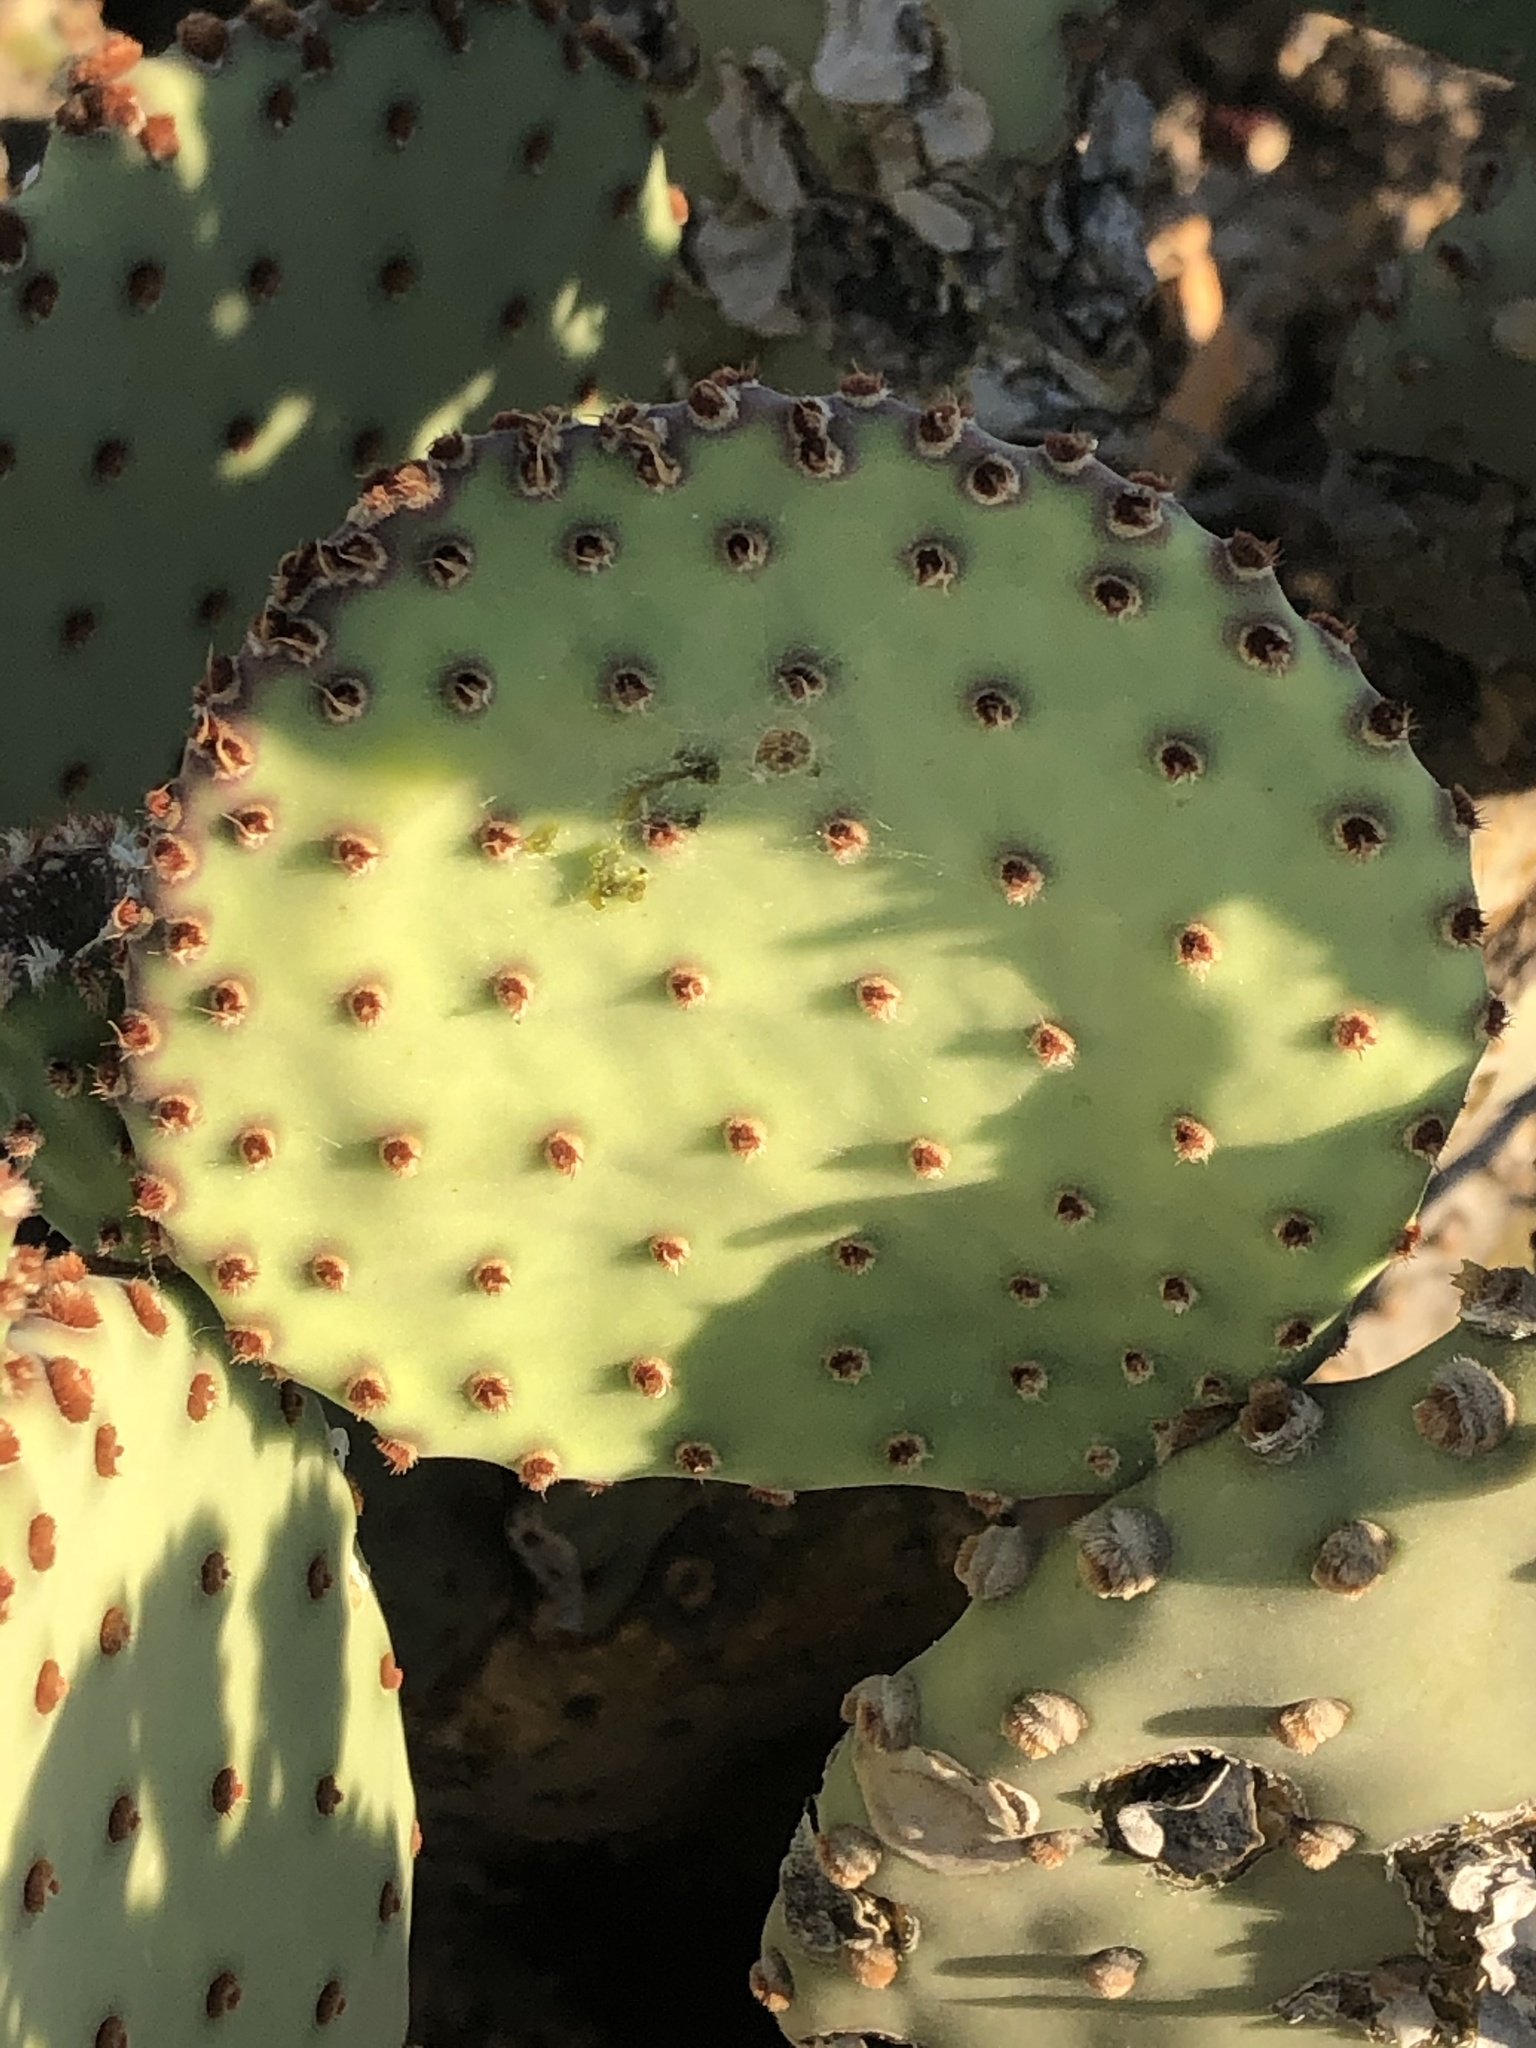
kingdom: Plantae
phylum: Tracheophyta
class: Magnoliopsida
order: Caryophyllales
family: Cactaceae
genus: Opuntia
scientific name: Opuntia rufida
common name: Blind pricklypear
